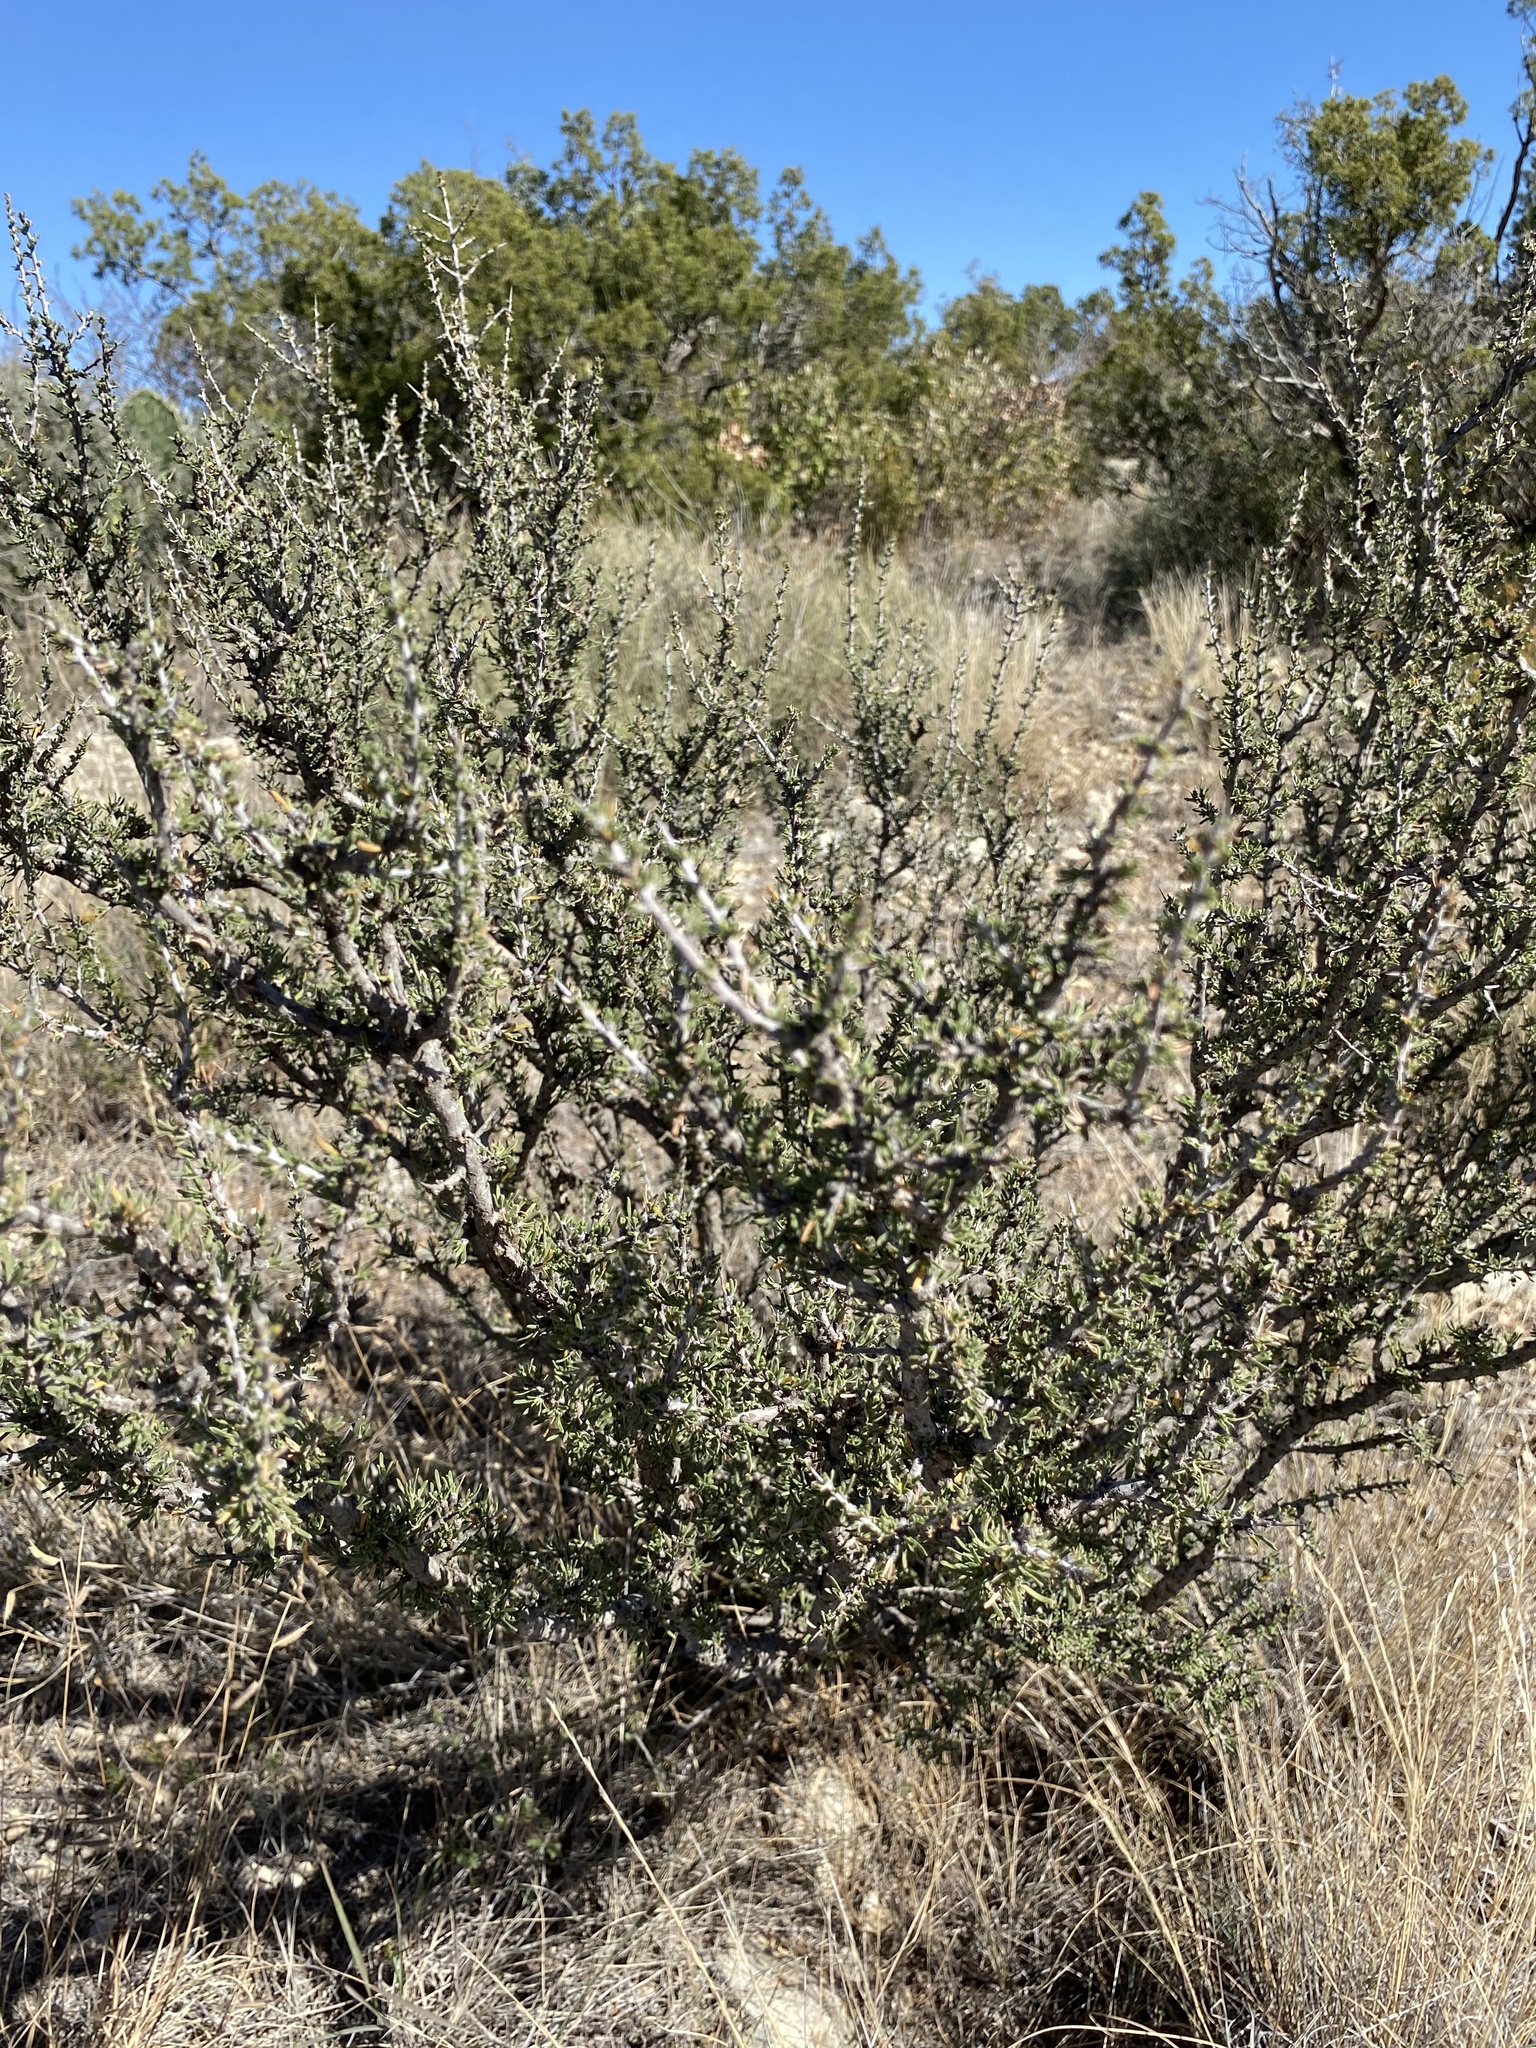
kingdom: Plantae
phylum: Tracheophyta
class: Magnoliopsida
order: Rosales
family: Rhamnaceae
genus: Condalia
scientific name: Condalia ericoides
